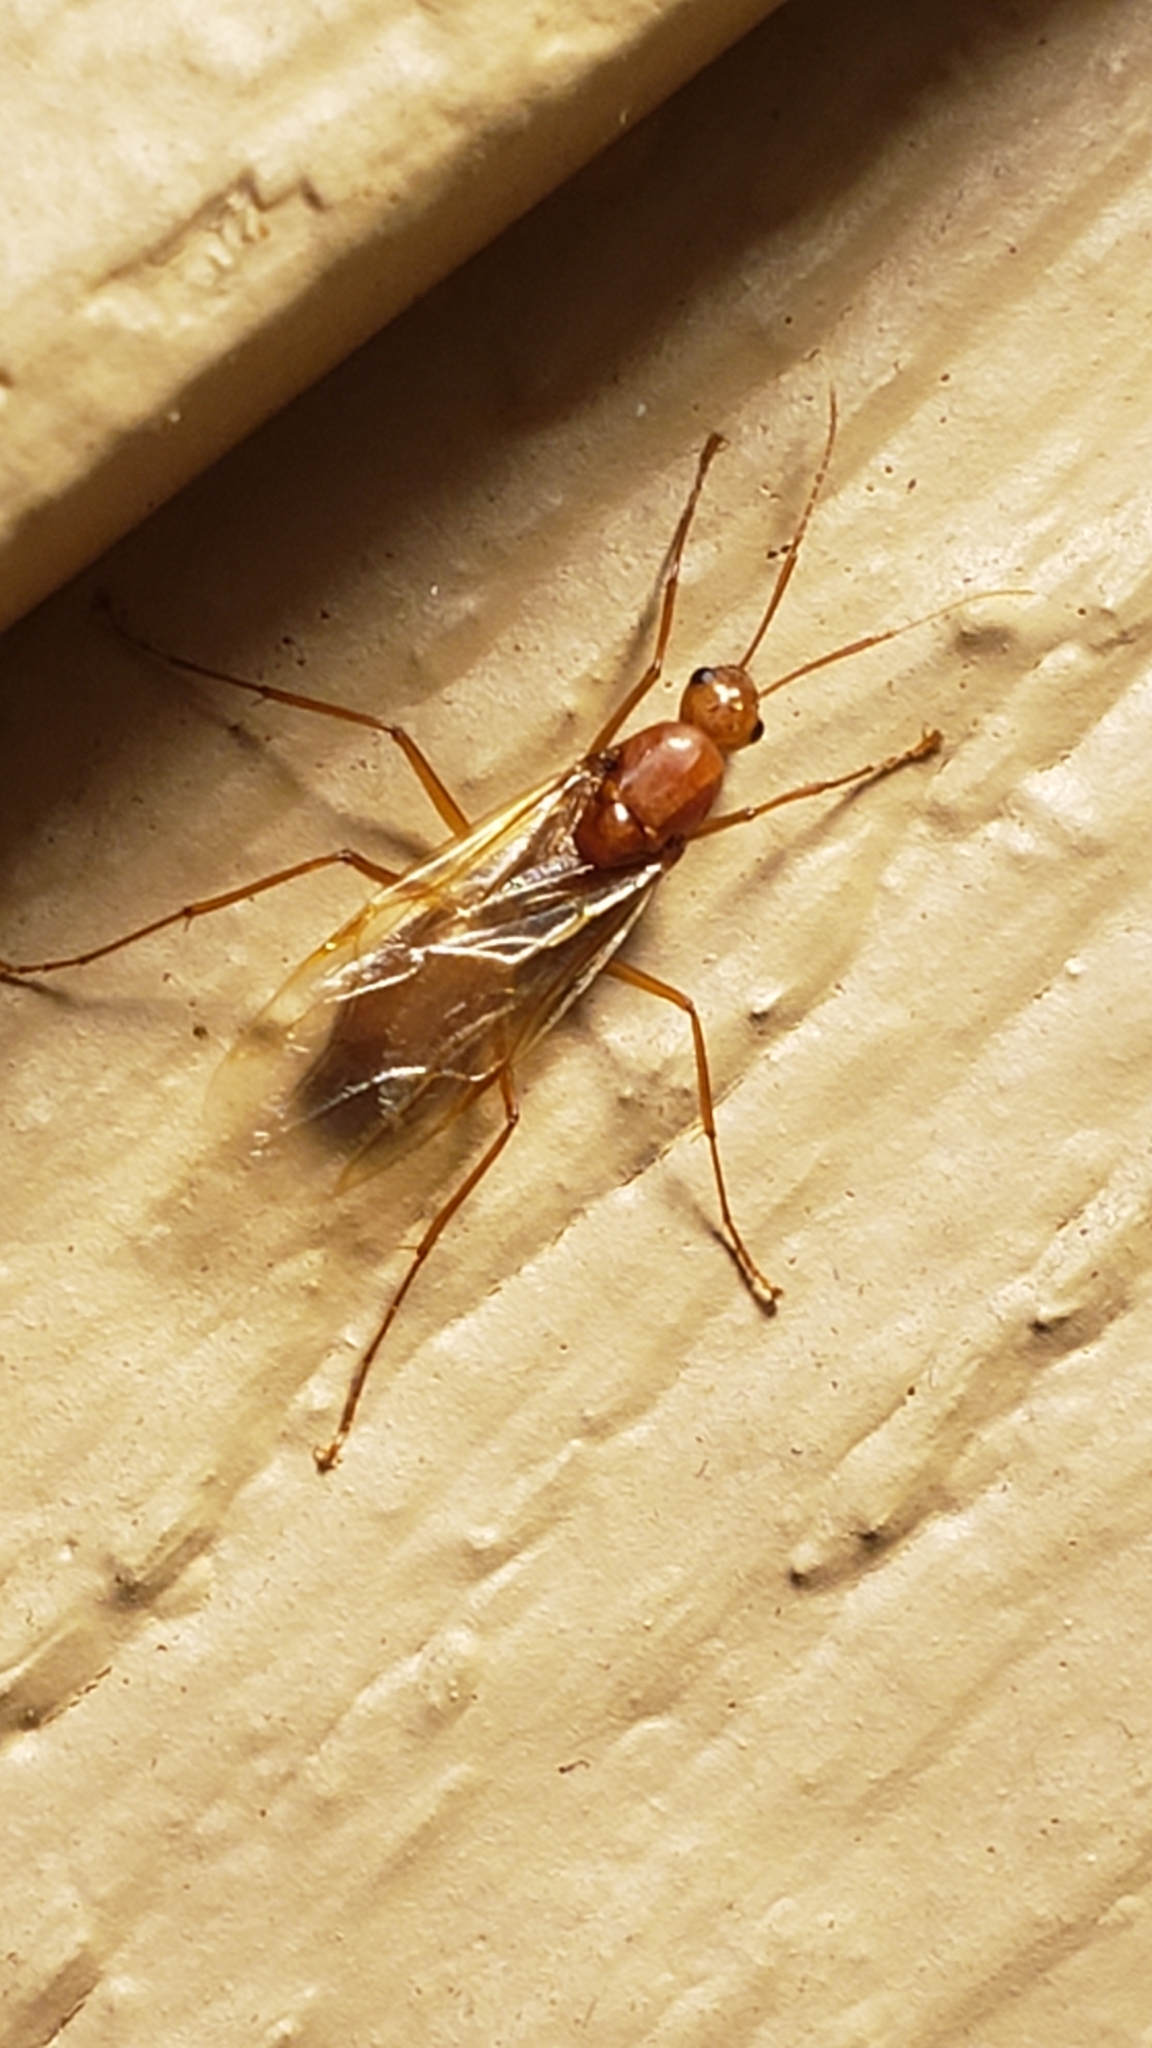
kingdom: Animalia
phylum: Arthropoda
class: Insecta
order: Hymenoptera
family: Formicidae
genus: Camponotus
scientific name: Camponotus castaneus
